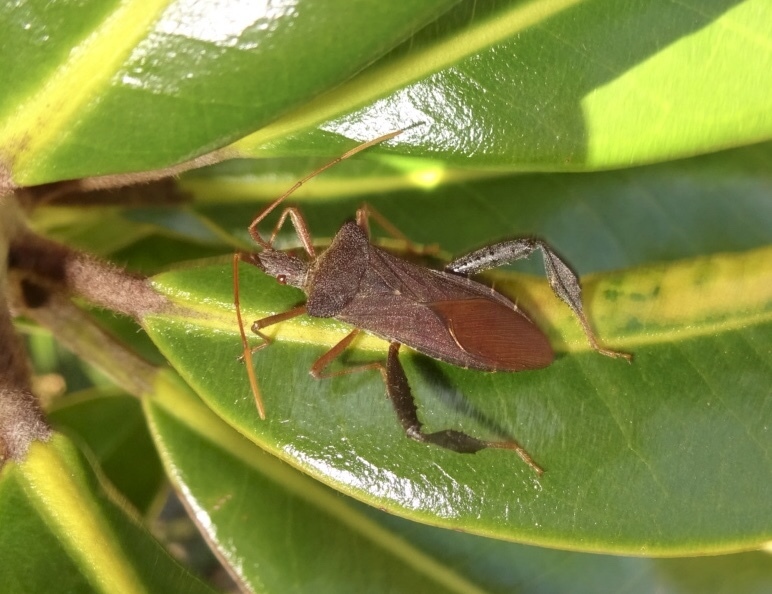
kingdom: Animalia
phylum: Arthropoda
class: Insecta
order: Hemiptera
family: Coreidae
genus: Leptoglossus
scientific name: Leptoglossus fulvicornis
